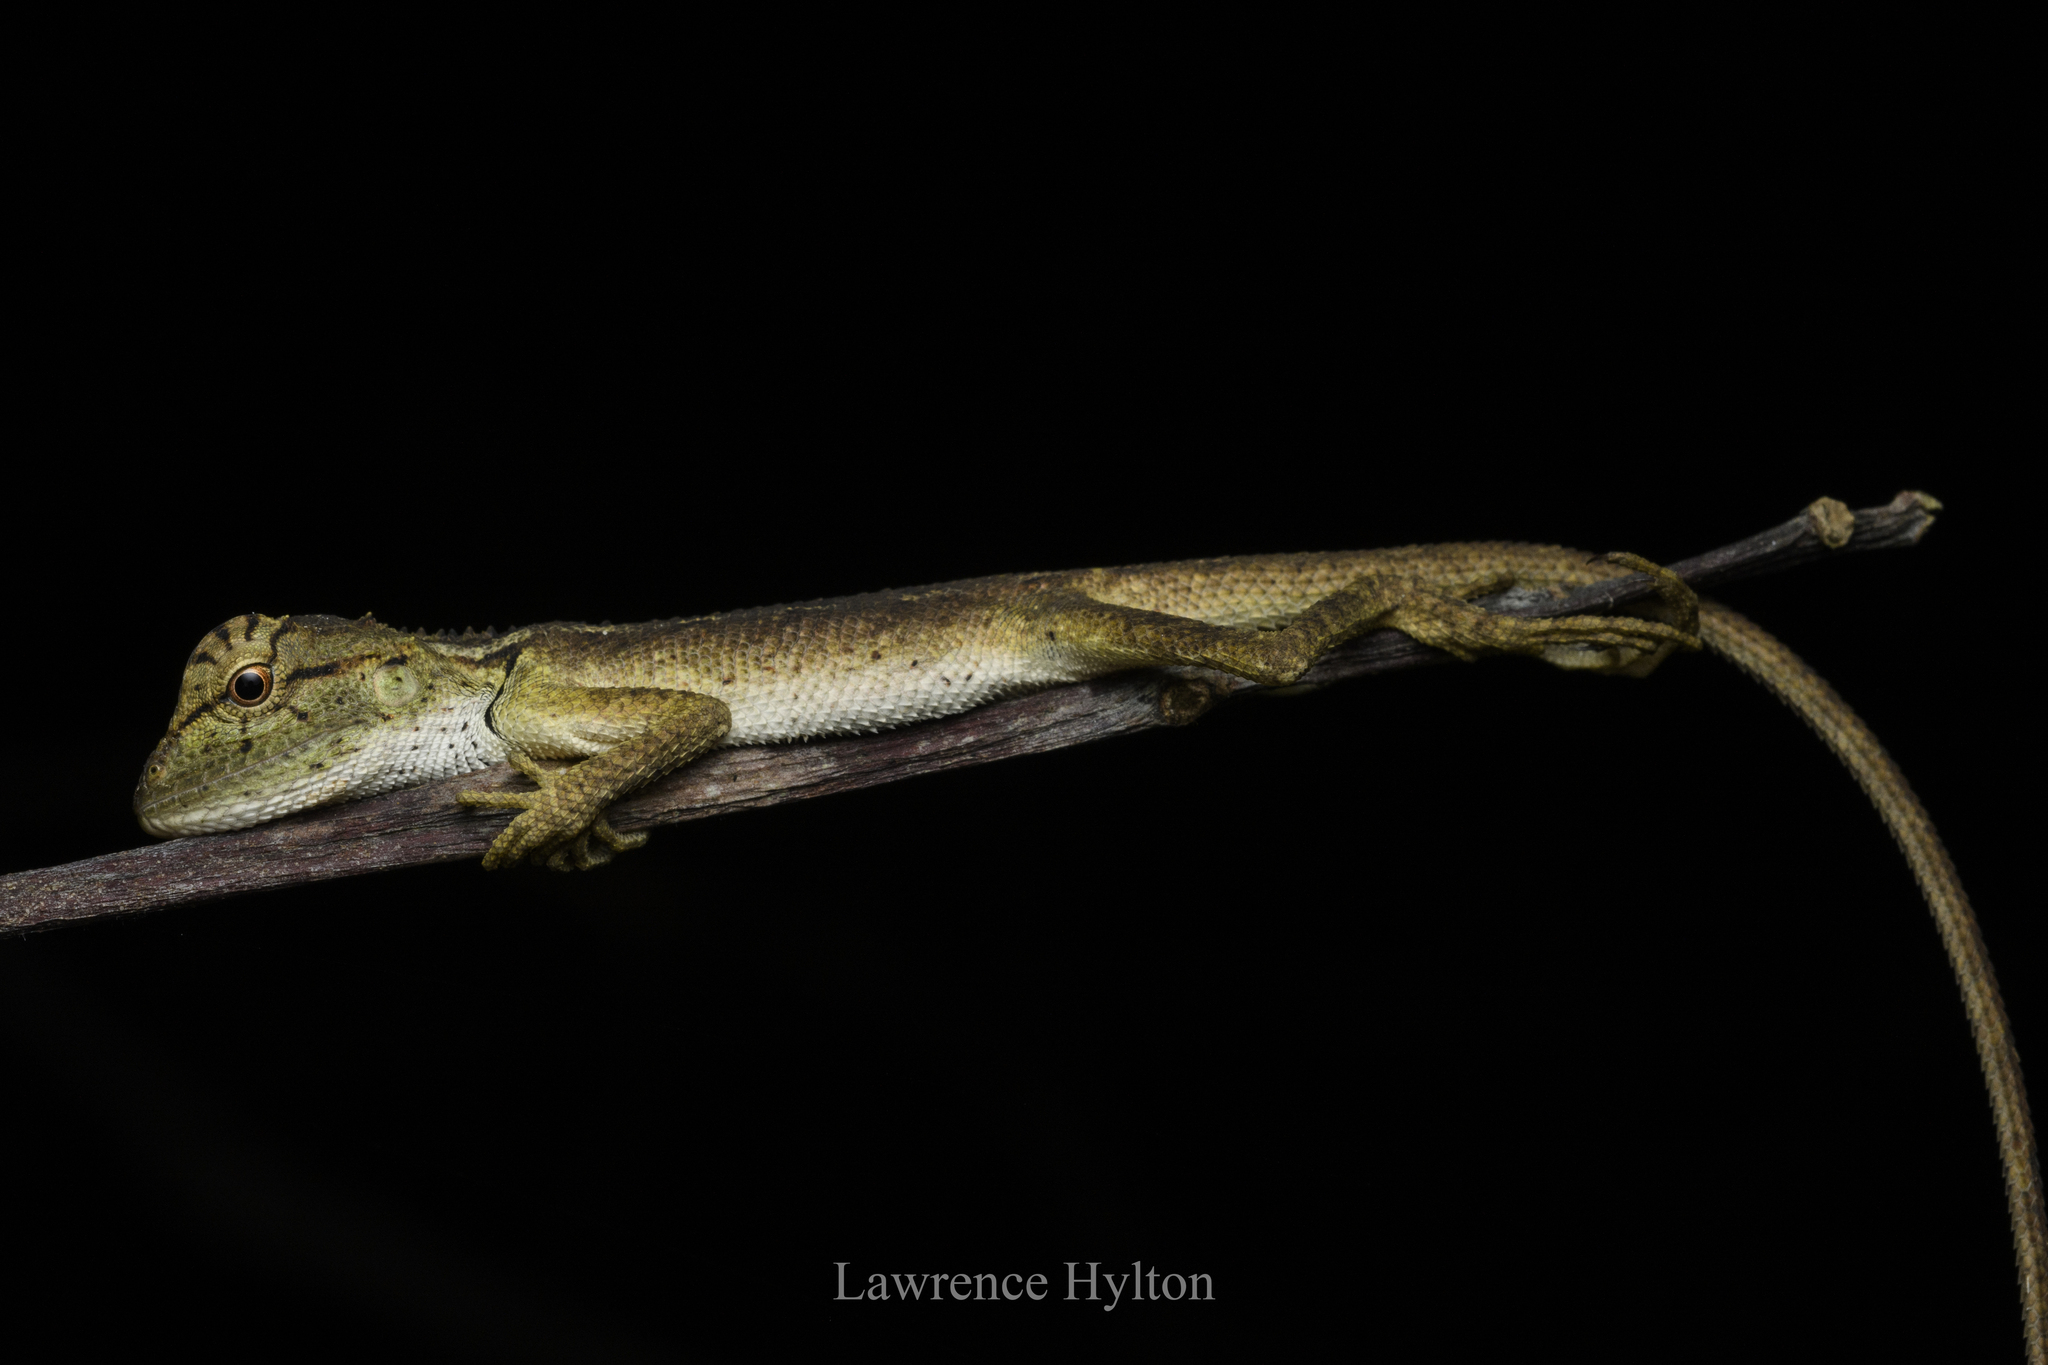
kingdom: Animalia
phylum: Chordata
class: Squamata
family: Agamidae
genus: Calotes
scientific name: Calotes emma
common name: Thailand bloodsucker
